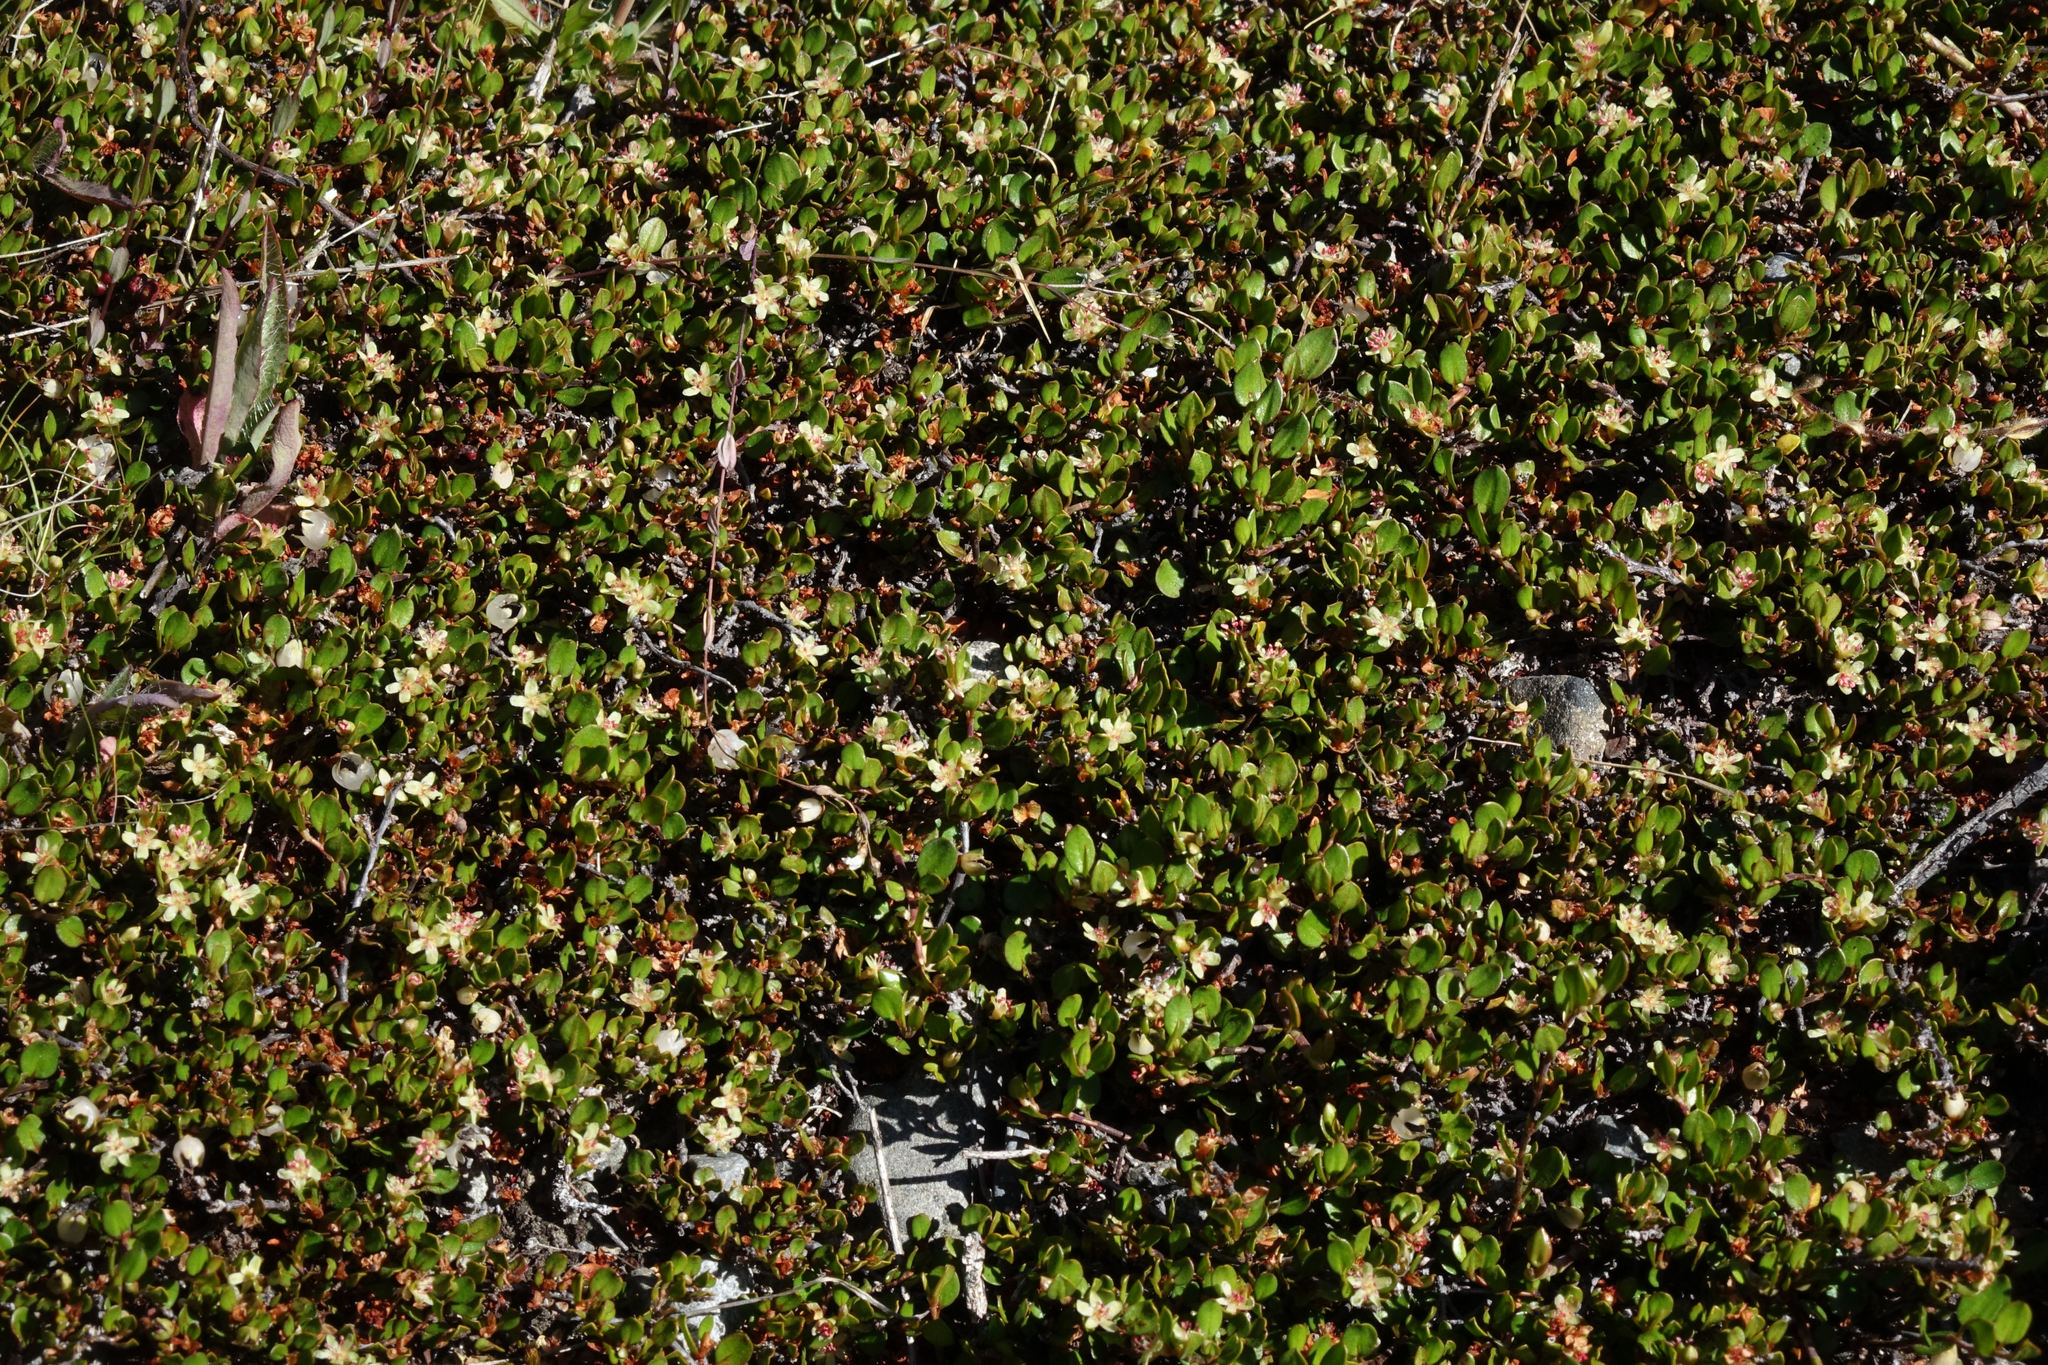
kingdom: Plantae
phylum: Tracheophyta
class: Magnoliopsida
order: Caryophyllales
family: Polygonaceae
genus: Muehlenbeckia
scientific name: Muehlenbeckia axillaris
